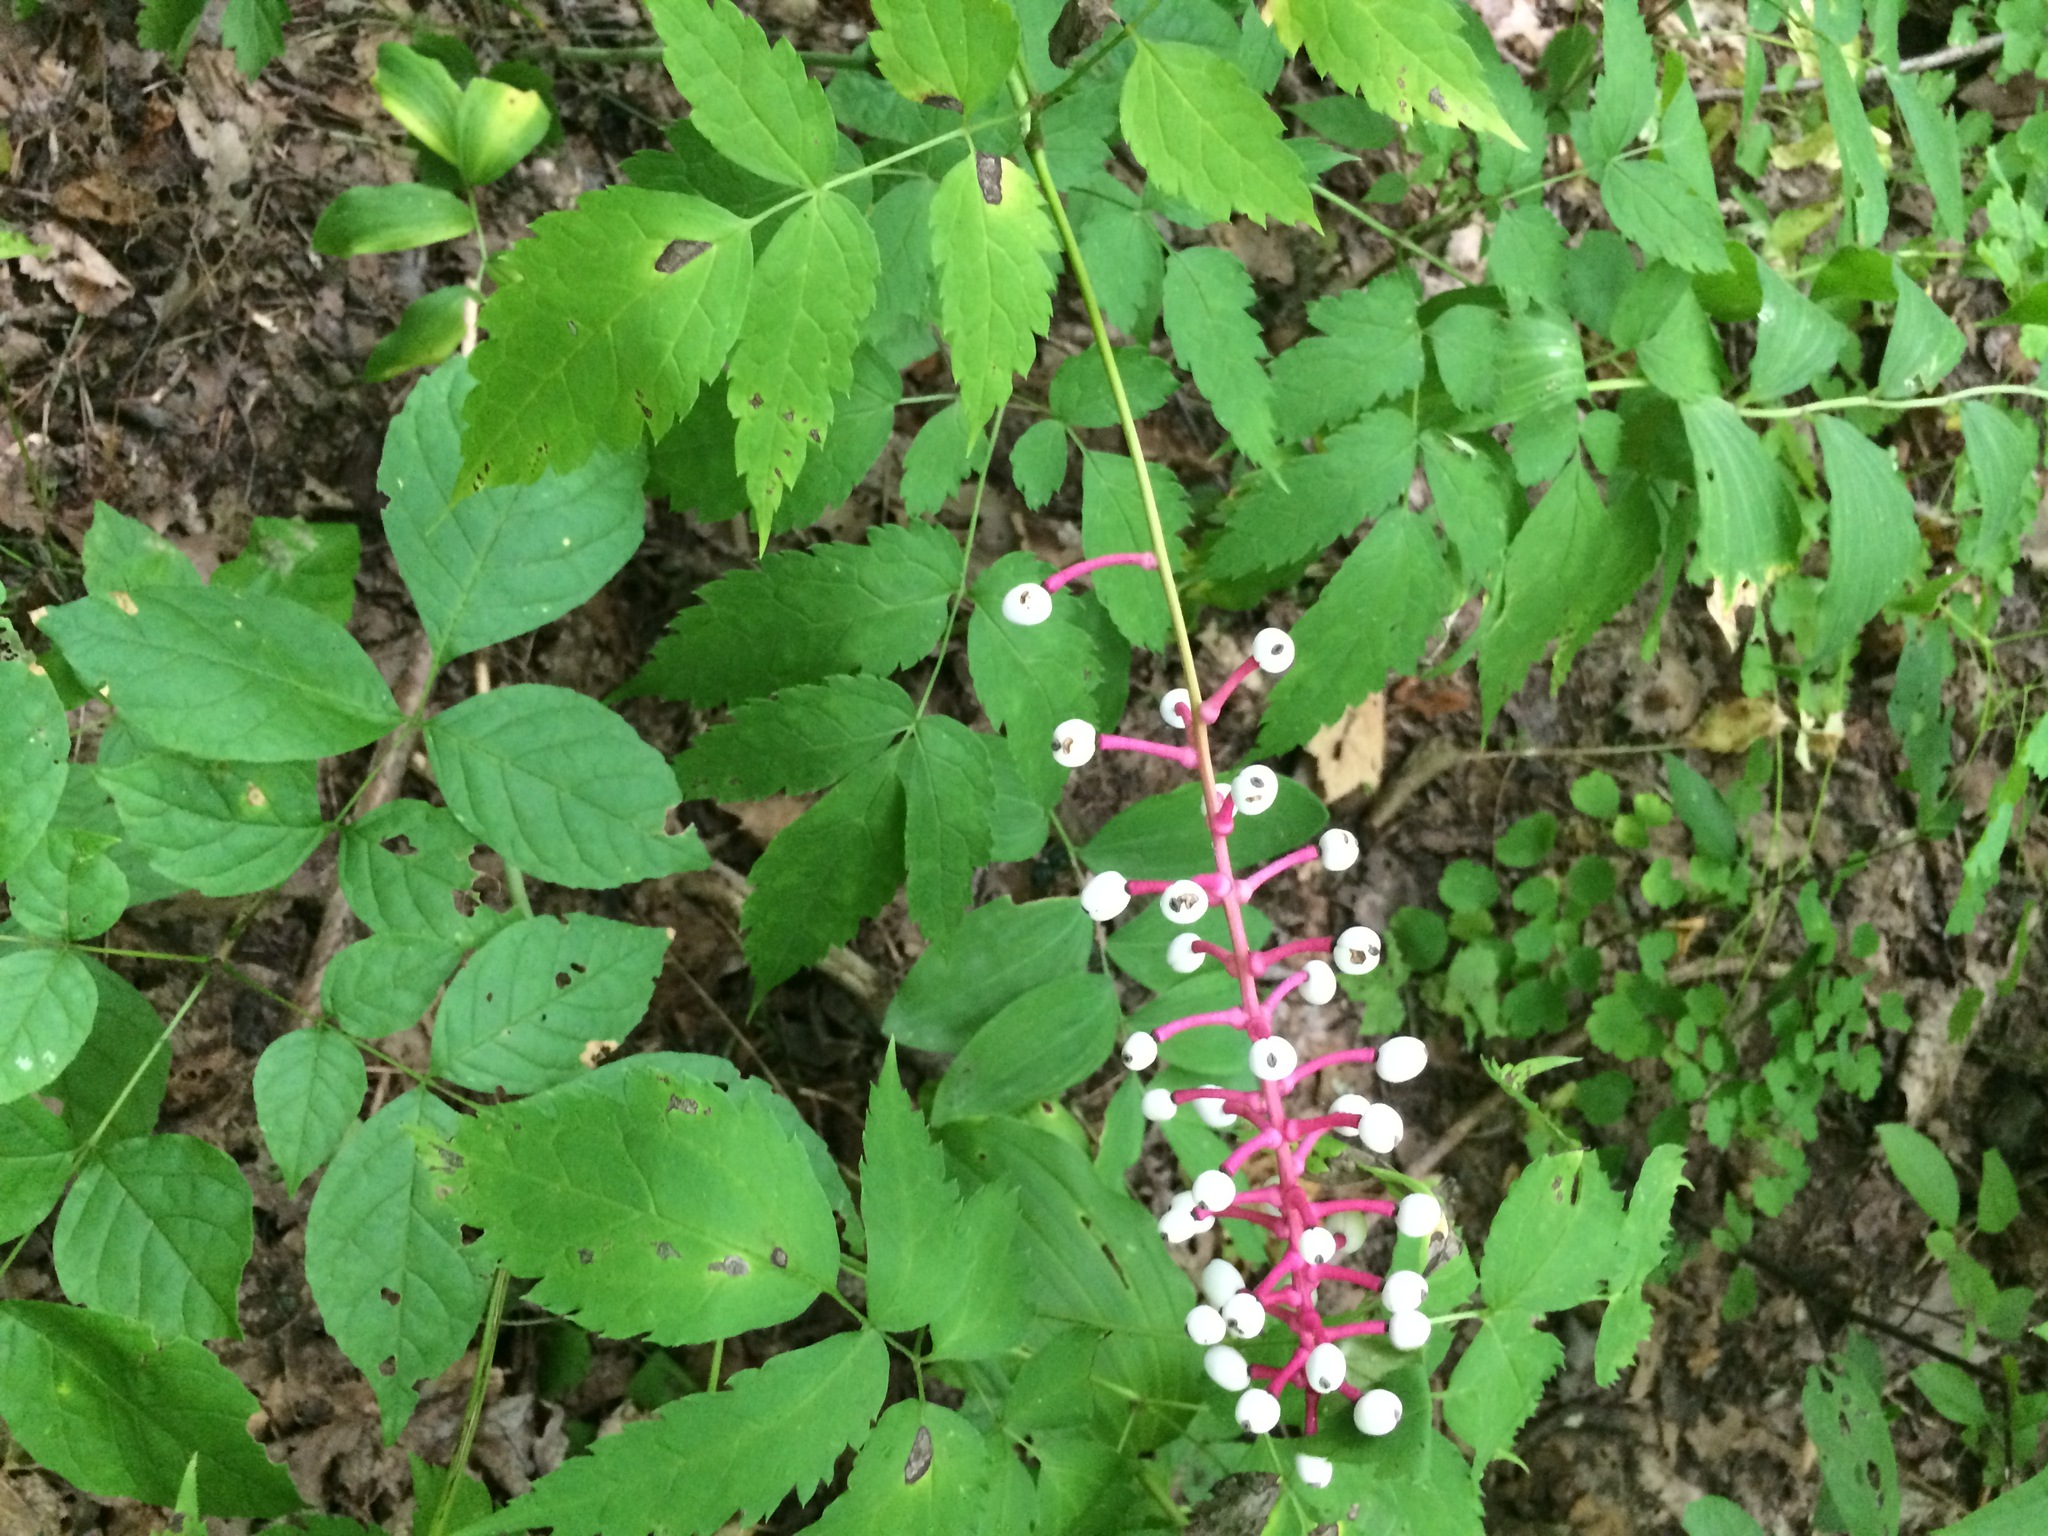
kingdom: Plantae
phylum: Tracheophyta
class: Magnoliopsida
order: Ranunculales
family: Ranunculaceae
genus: Actaea
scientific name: Actaea pachypoda
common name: Doll's-eyes
